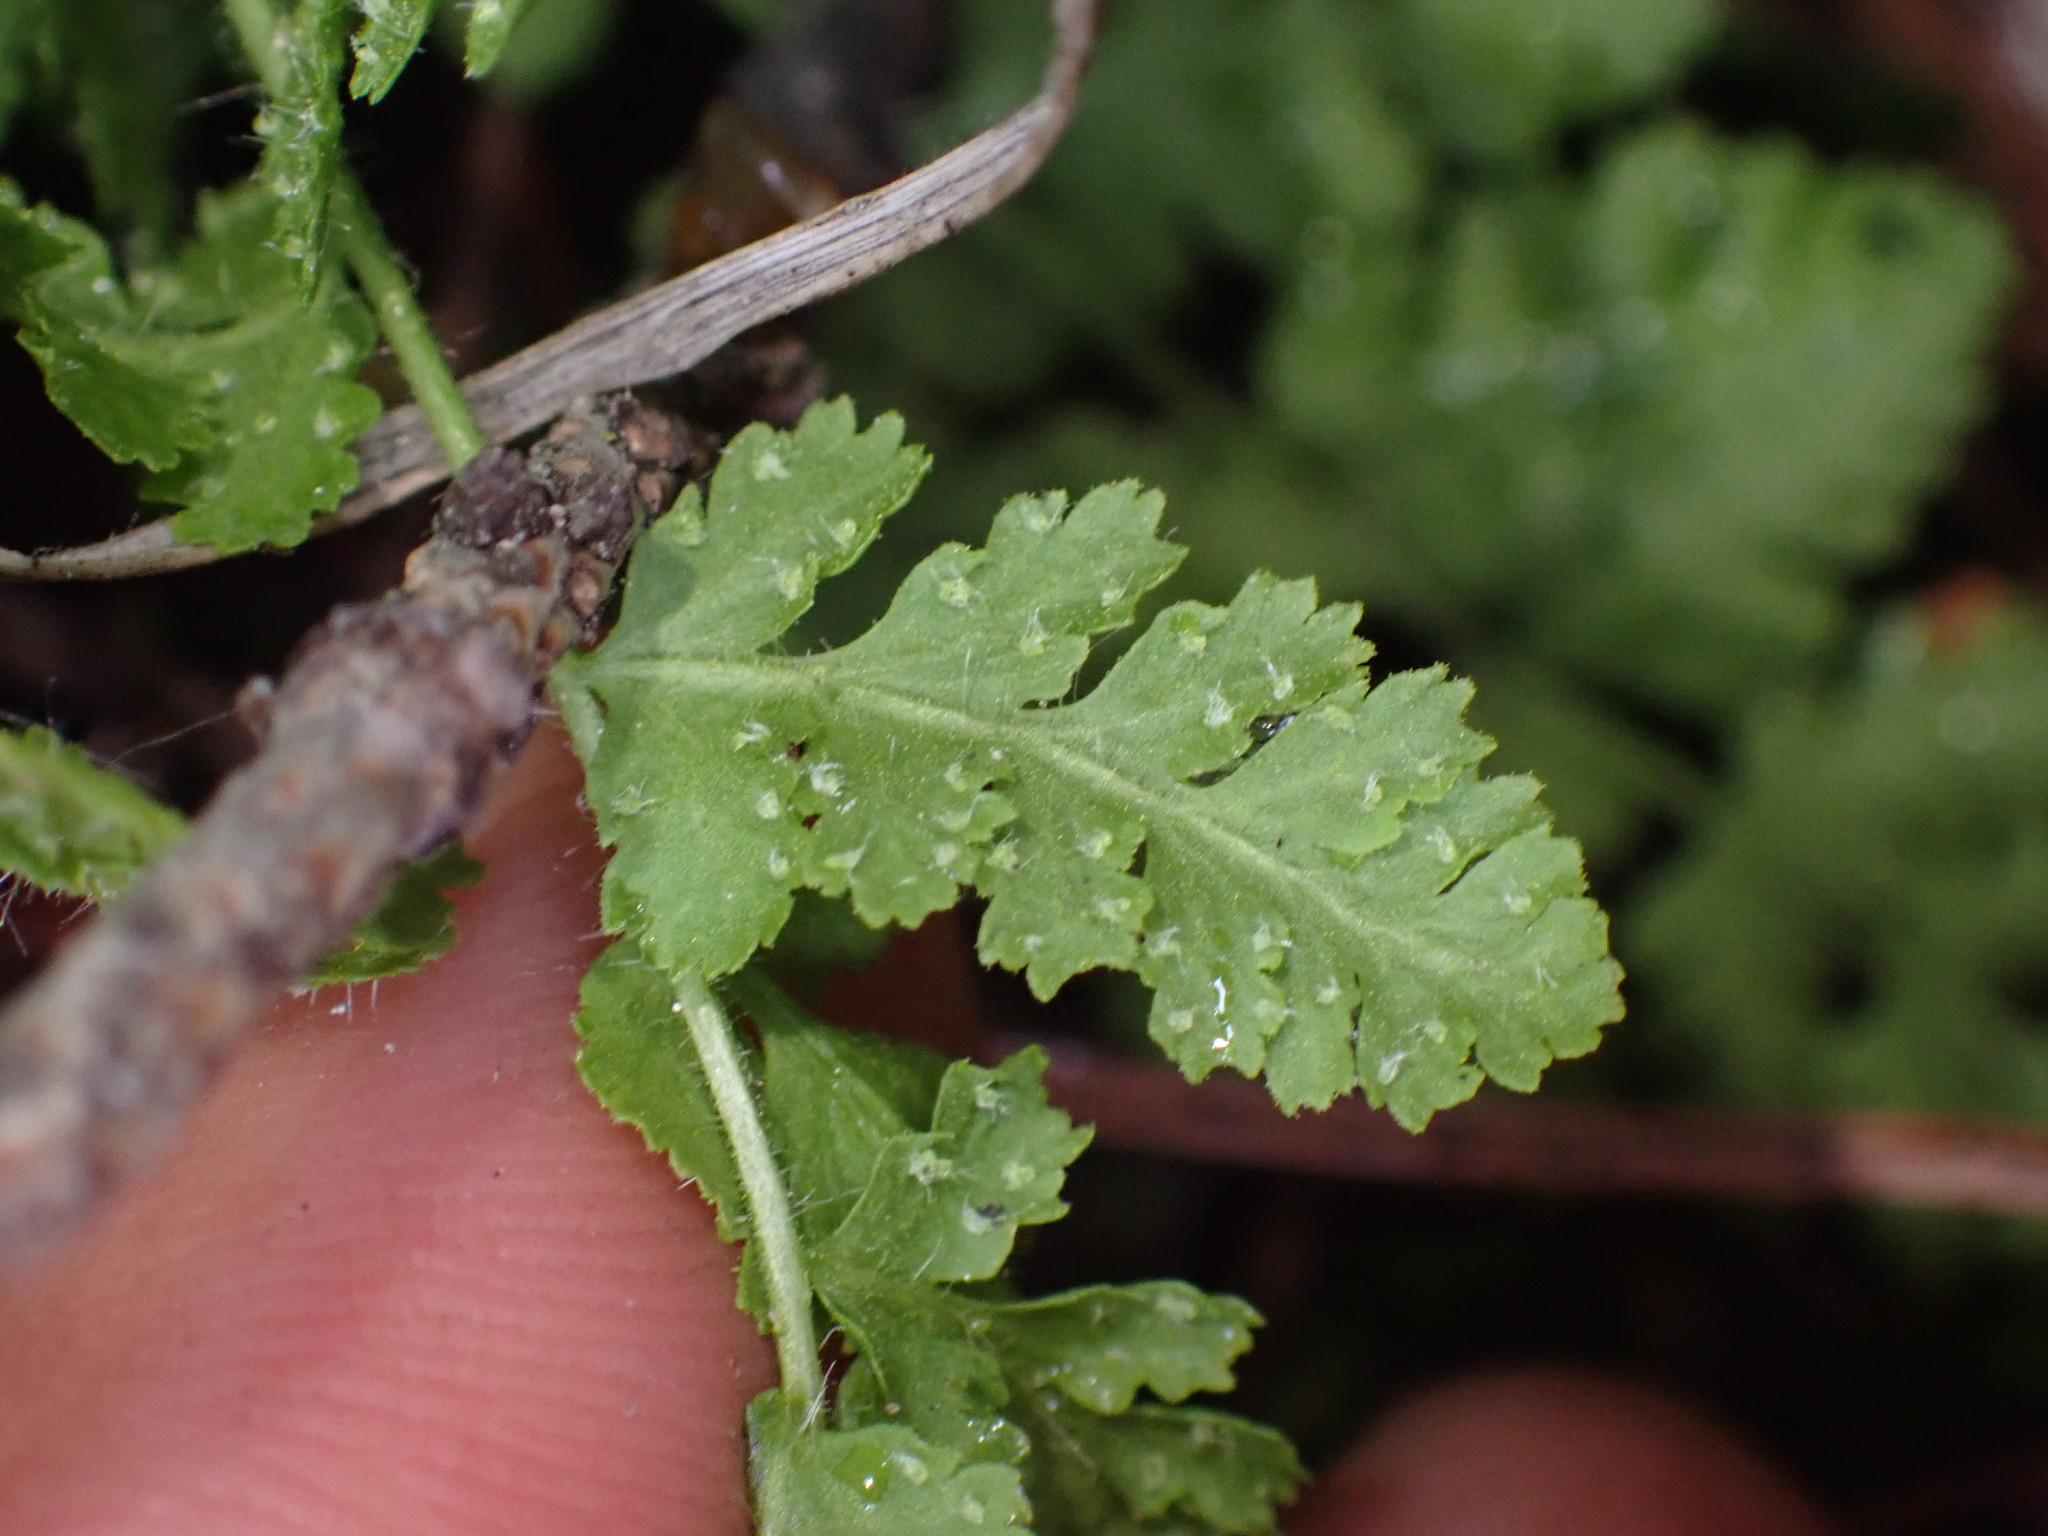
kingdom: Plantae
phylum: Tracheophyta
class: Polypodiopsida
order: Polypodiales
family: Woodsiaceae
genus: Physematium
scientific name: Physematium scopulinum
